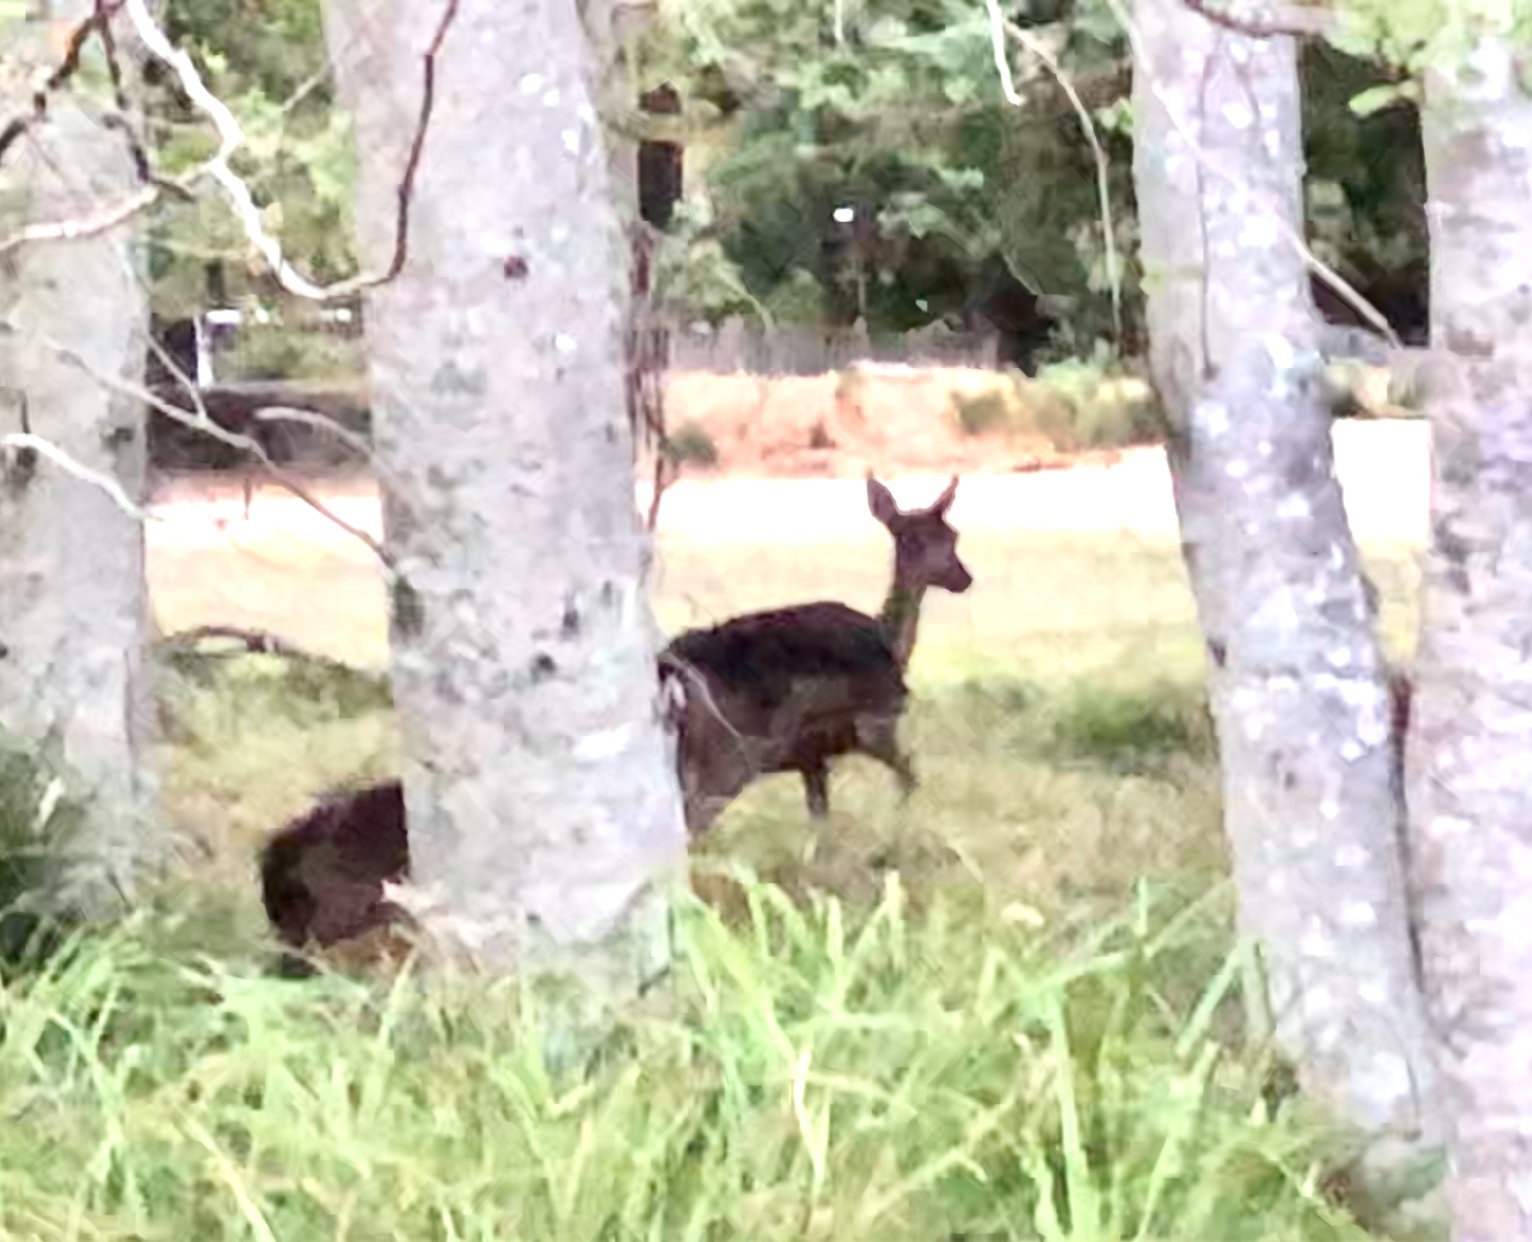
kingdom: Animalia
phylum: Chordata
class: Mammalia
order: Artiodactyla
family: Cervidae
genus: Odocoileus
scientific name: Odocoileus hemionus
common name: Mule deer
